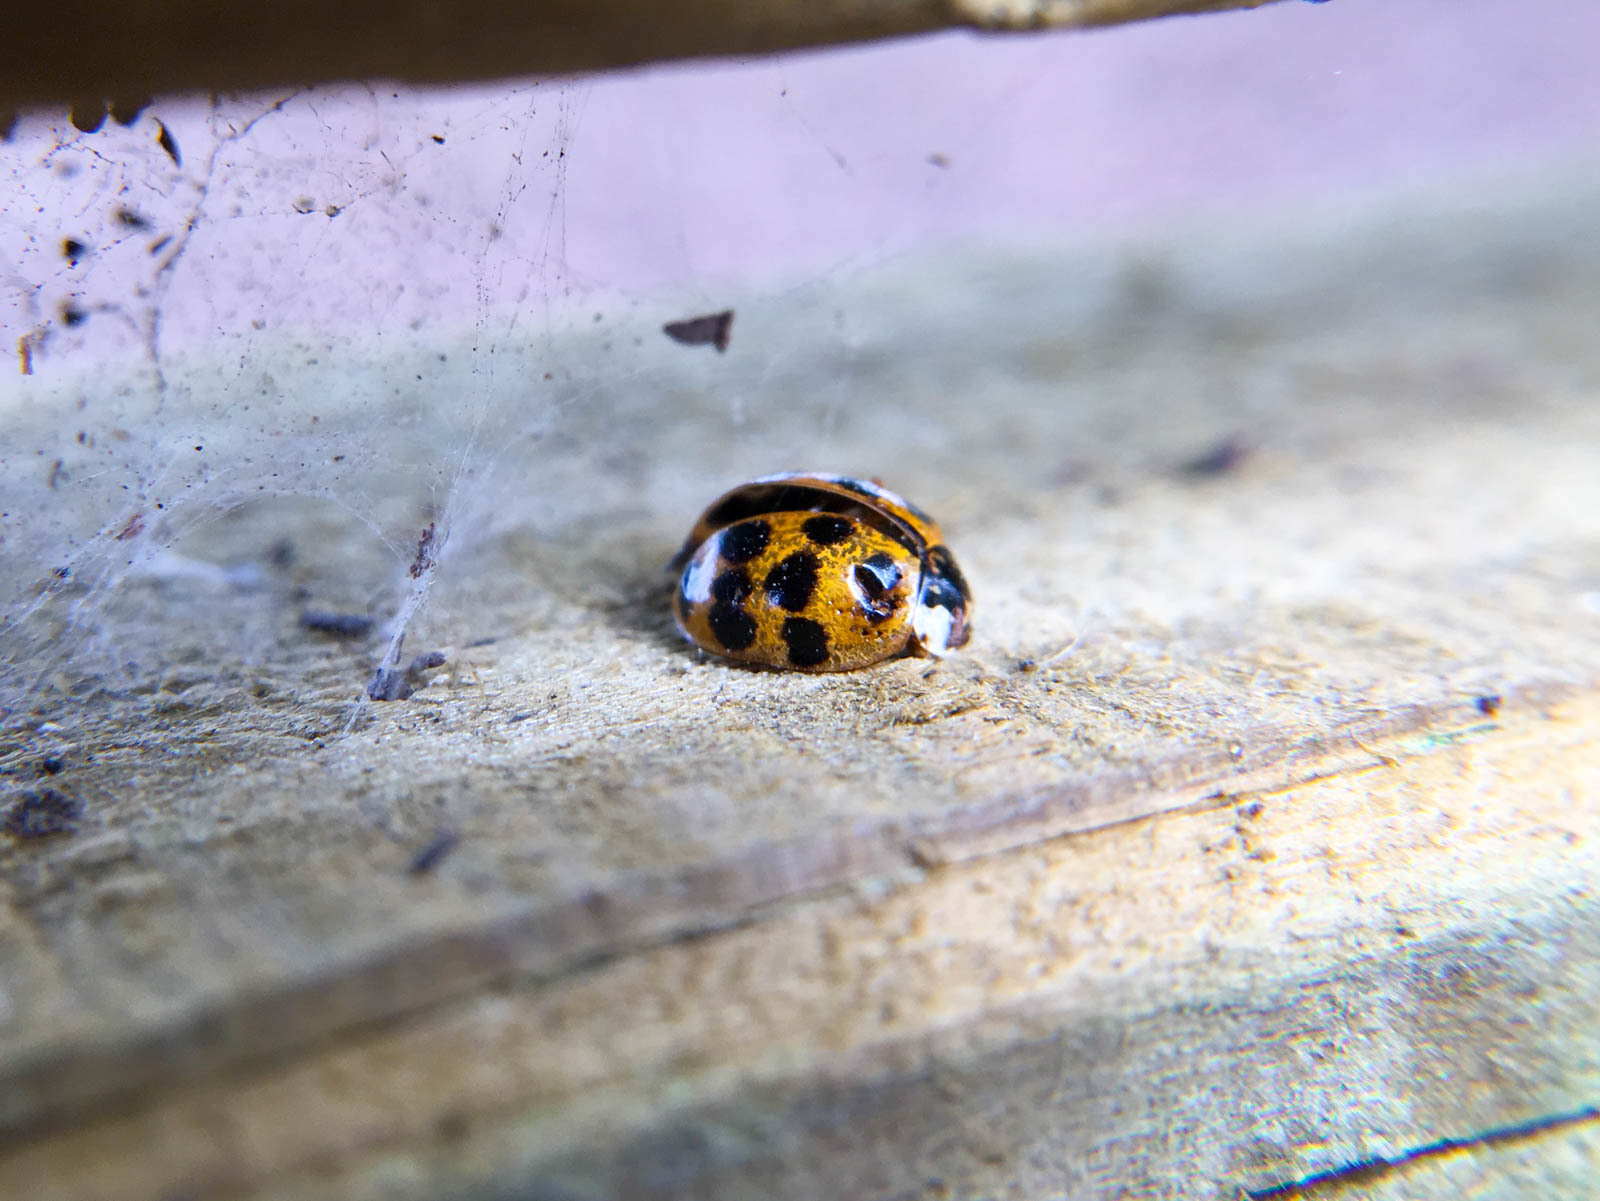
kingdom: Animalia
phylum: Arthropoda
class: Insecta
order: Coleoptera
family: Coccinellidae
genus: Harmonia
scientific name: Harmonia axyridis
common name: Harlequin ladybird
